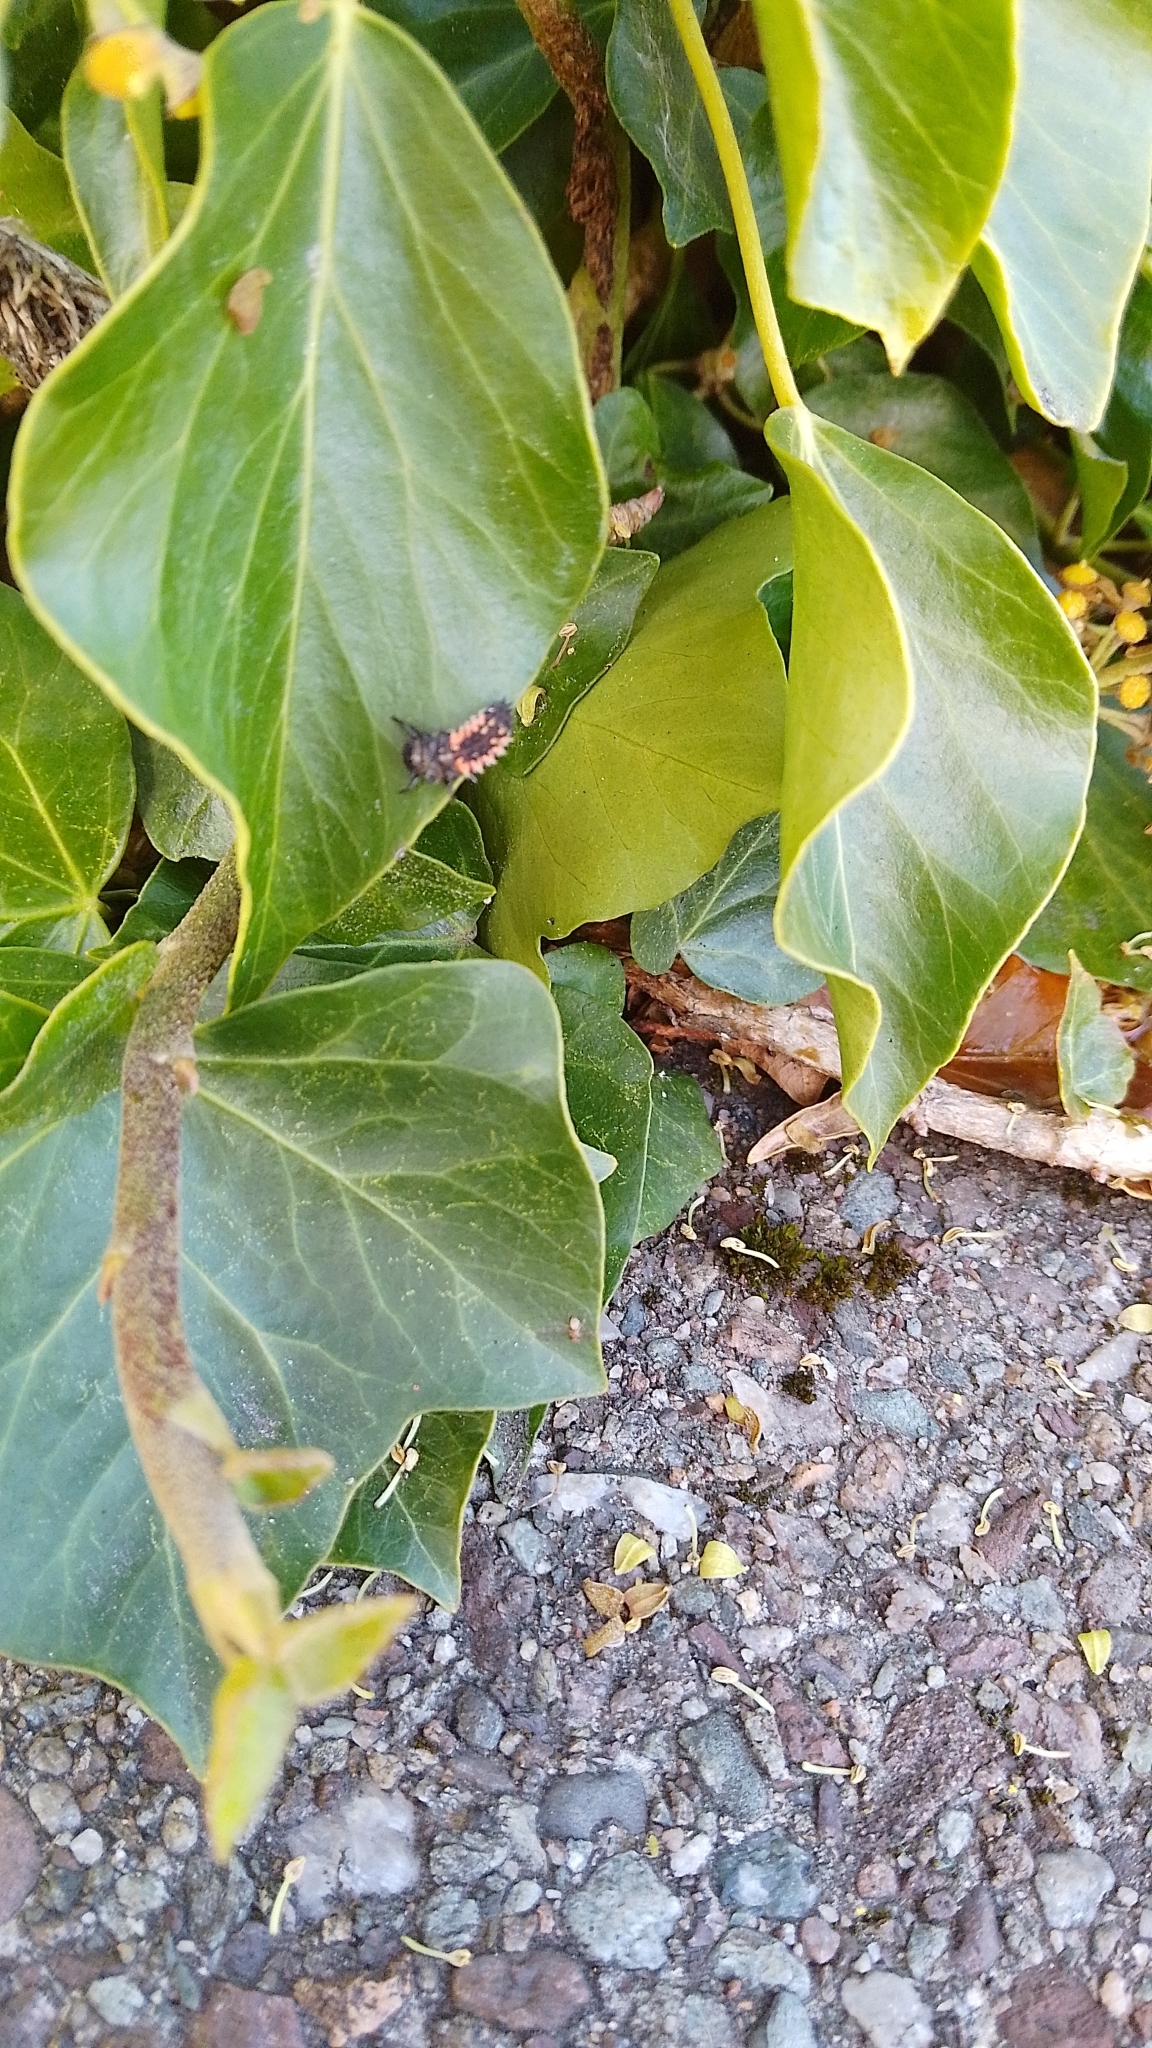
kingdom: Animalia
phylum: Arthropoda
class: Insecta
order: Coleoptera
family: Coccinellidae
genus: Harmonia
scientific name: Harmonia axyridis
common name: Harlequin ladybird
